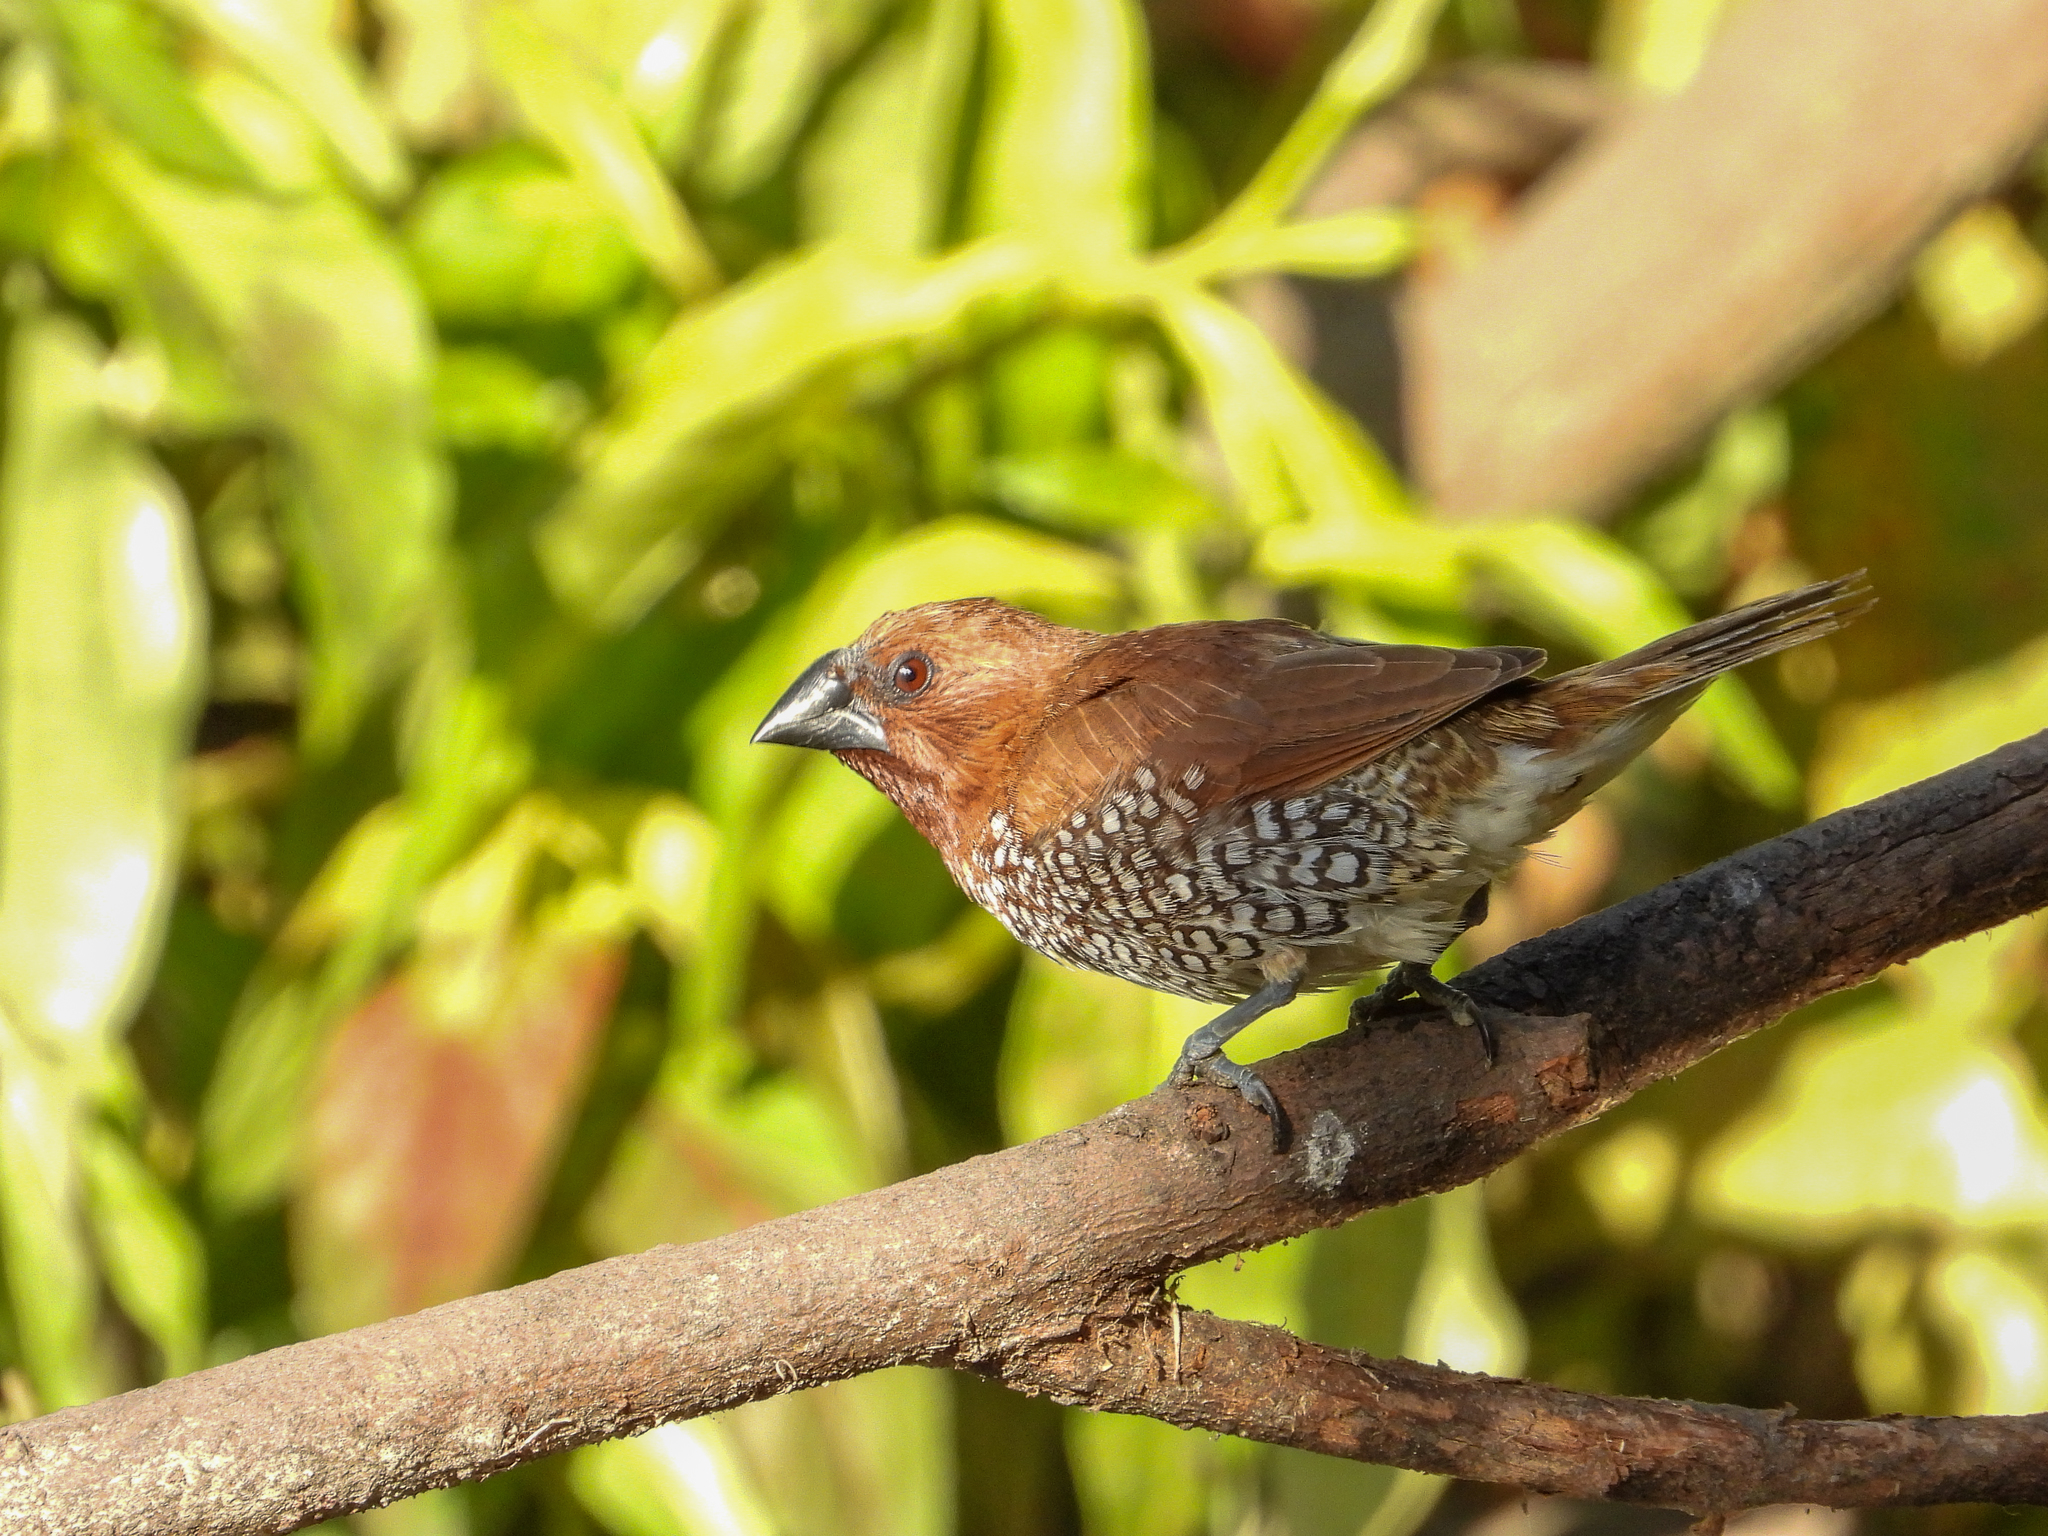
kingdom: Animalia
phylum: Chordata
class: Aves
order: Passeriformes
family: Estrildidae
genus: Lonchura
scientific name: Lonchura punctulata
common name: Scaly-breasted munia
